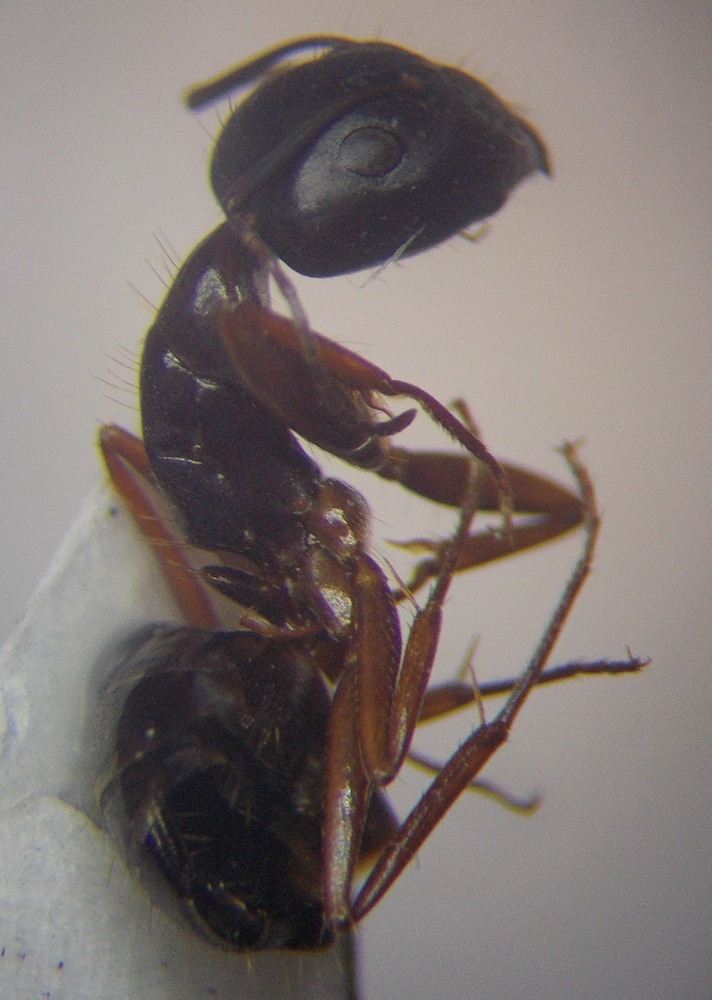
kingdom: Animalia
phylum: Arthropoda
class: Insecta
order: Hymenoptera
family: Formicidae
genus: Camponotus
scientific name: Camponotus aethiops
